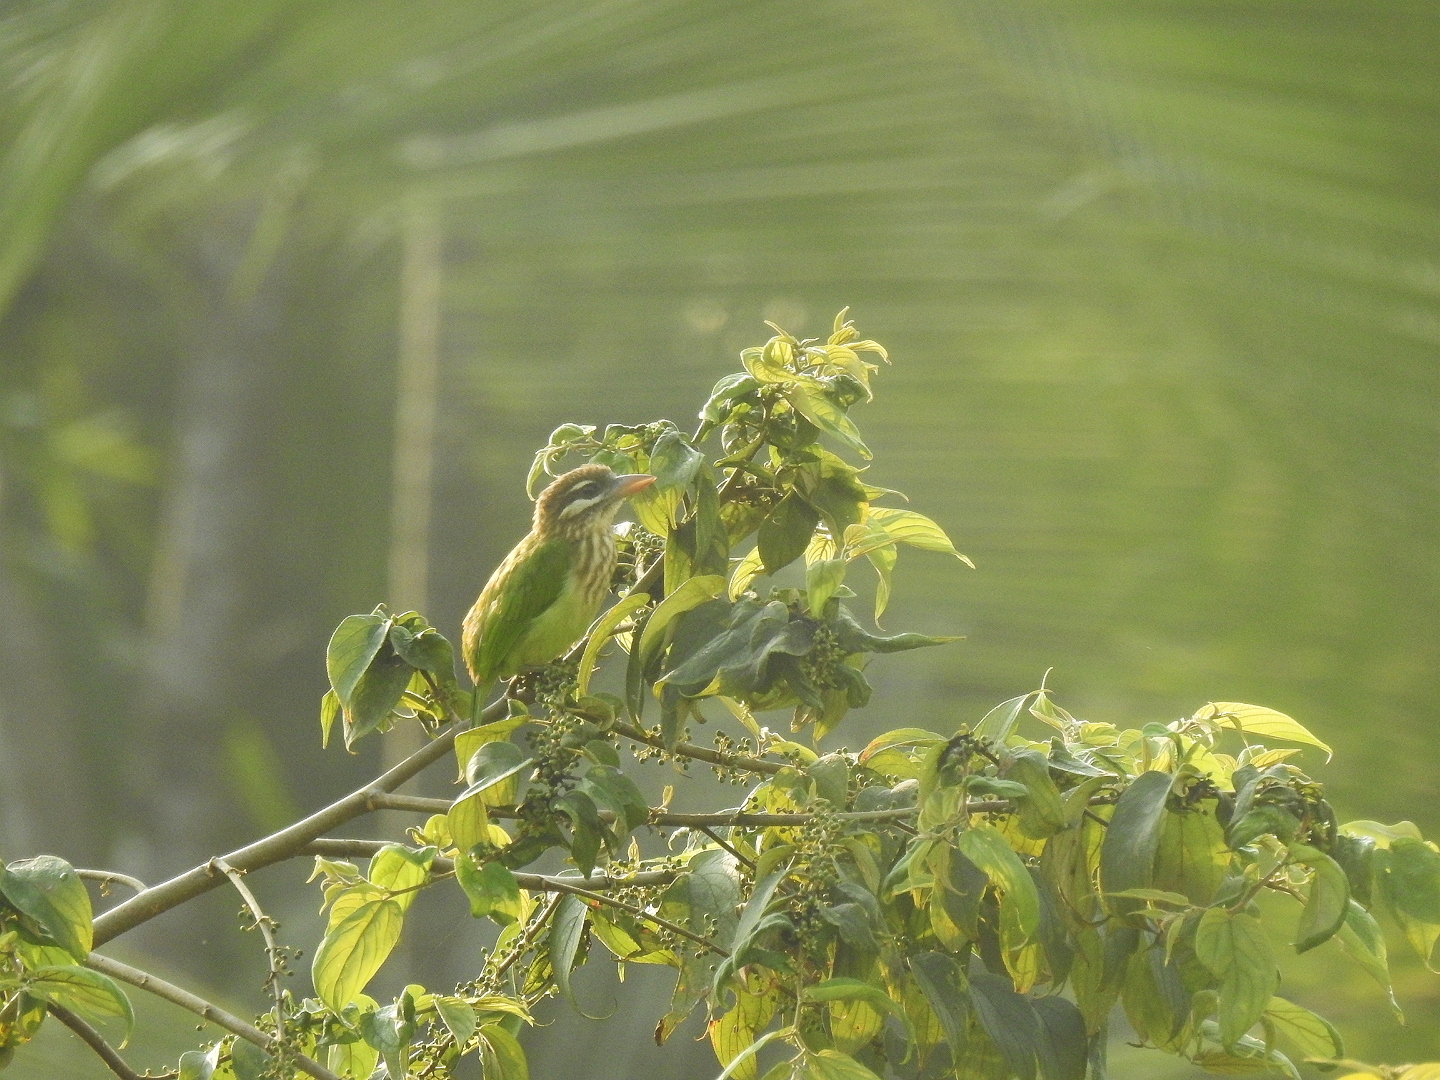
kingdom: Animalia
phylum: Chordata
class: Aves
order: Piciformes
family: Megalaimidae
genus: Psilopogon
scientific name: Psilopogon viridis
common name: White-cheeked barbet
